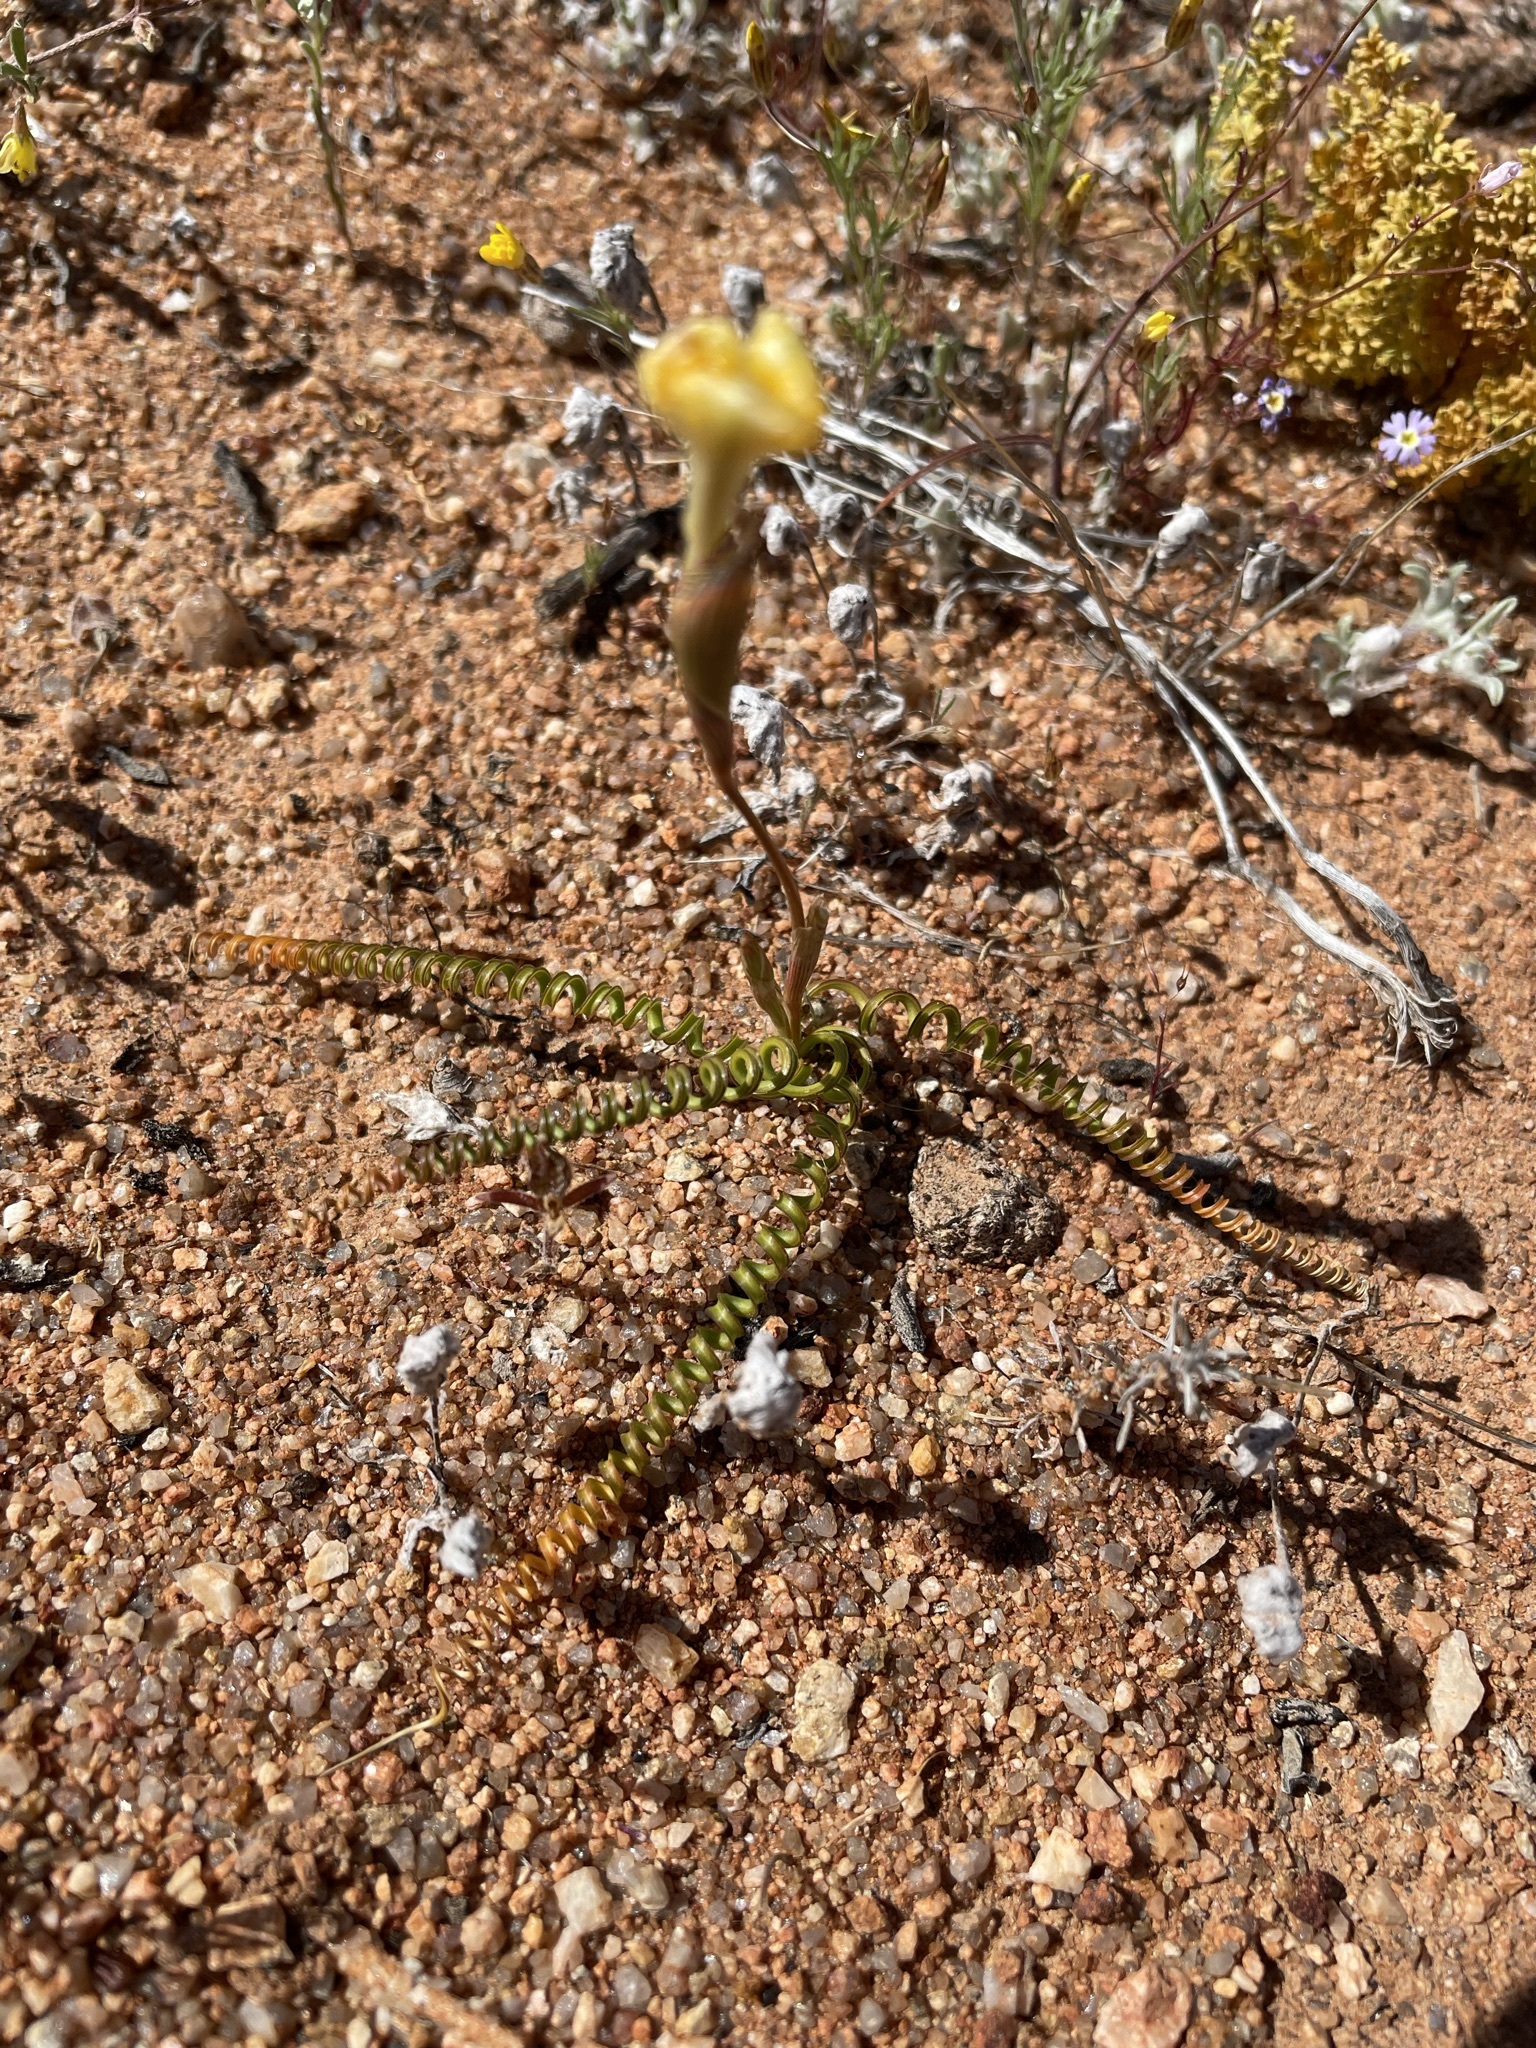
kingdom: Plantae
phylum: Tracheophyta
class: Liliopsida
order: Asparagales
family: Iridaceae
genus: Moraea
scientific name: Moraea serpentina
